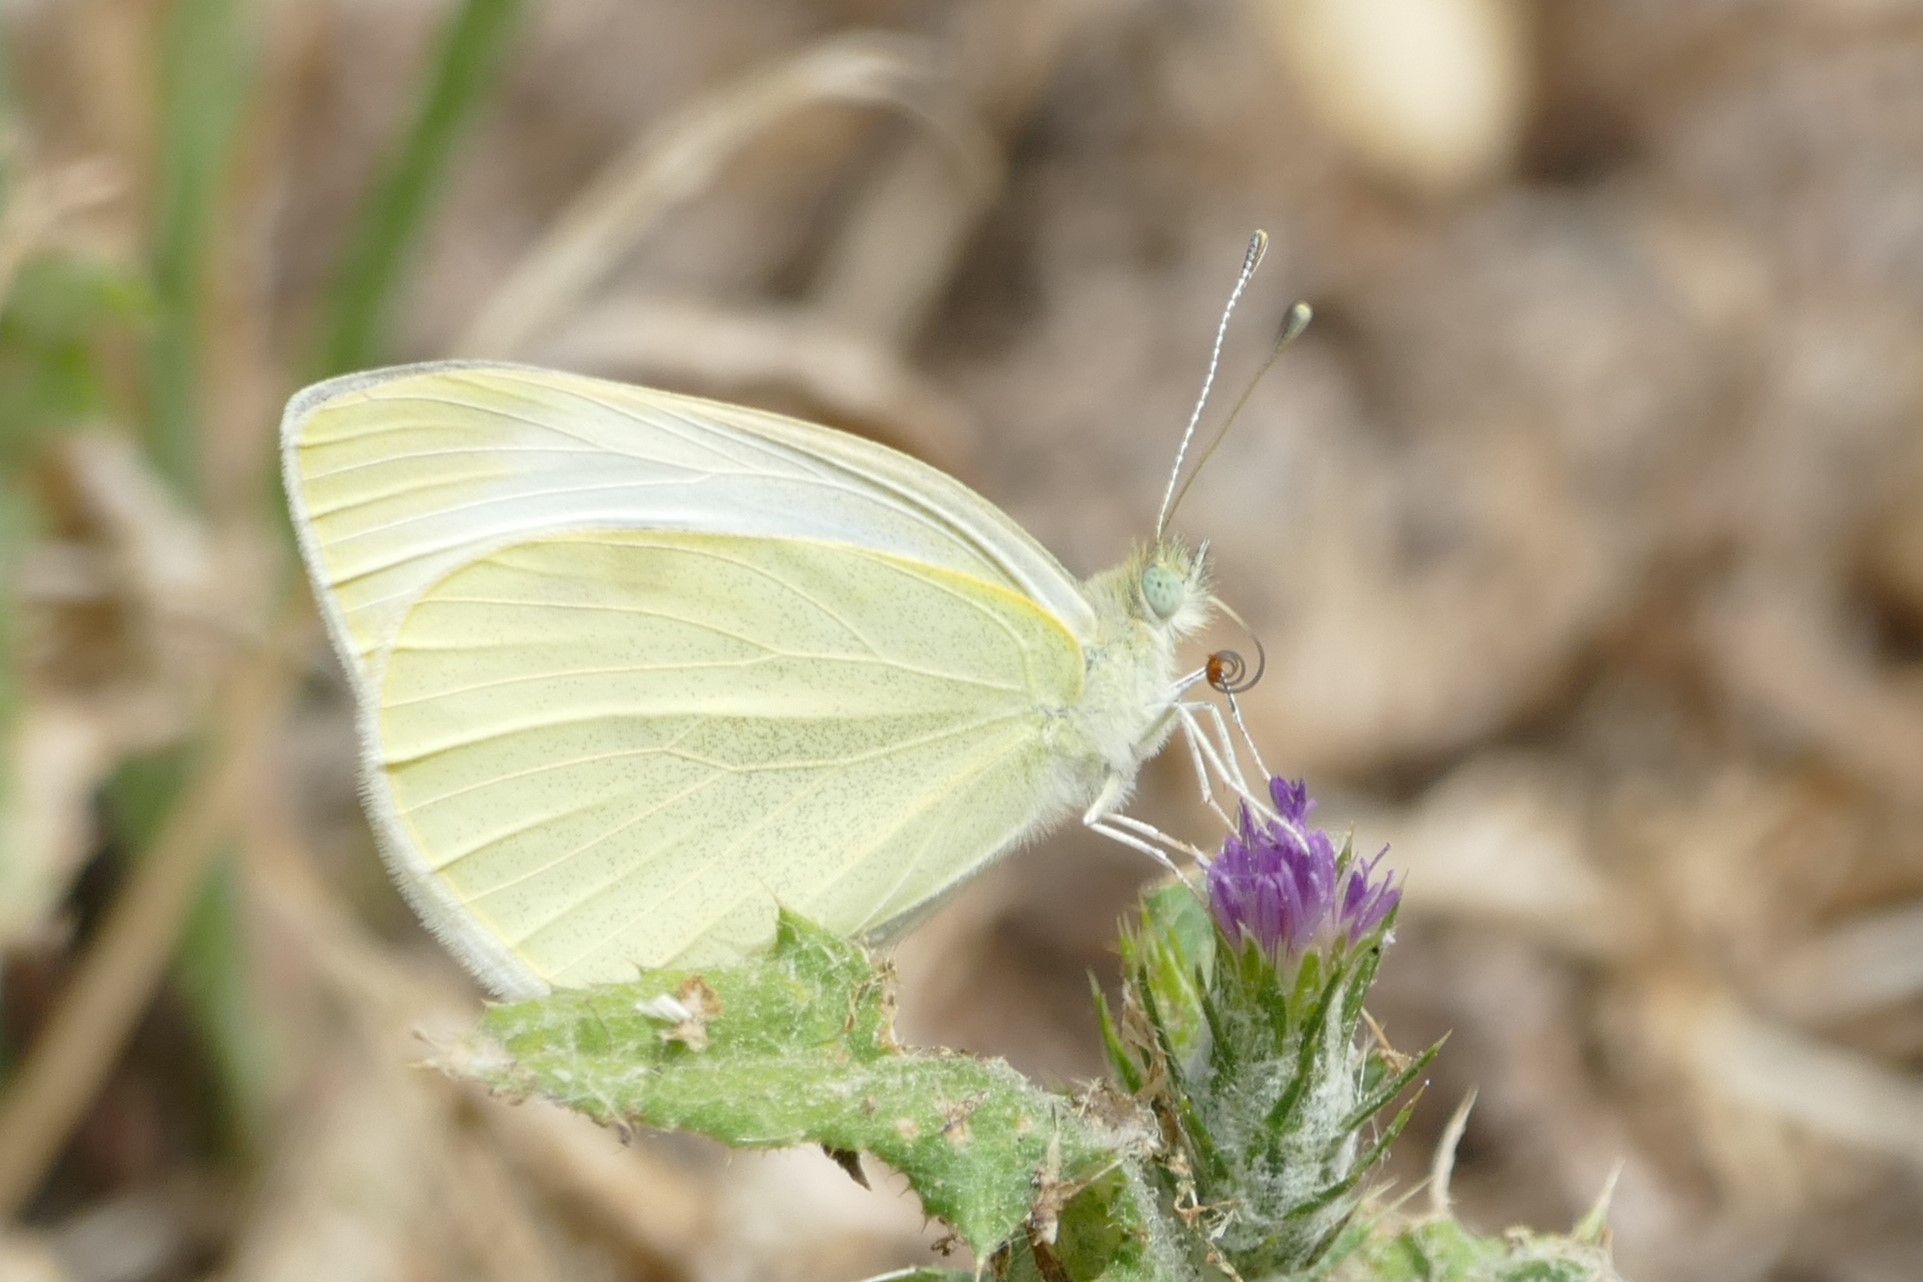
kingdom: Animalia
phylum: Arthropoda
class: Insecta
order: Lepidoptera
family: Pieridae
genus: Pieris
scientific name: Pieris rapae
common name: Small white
